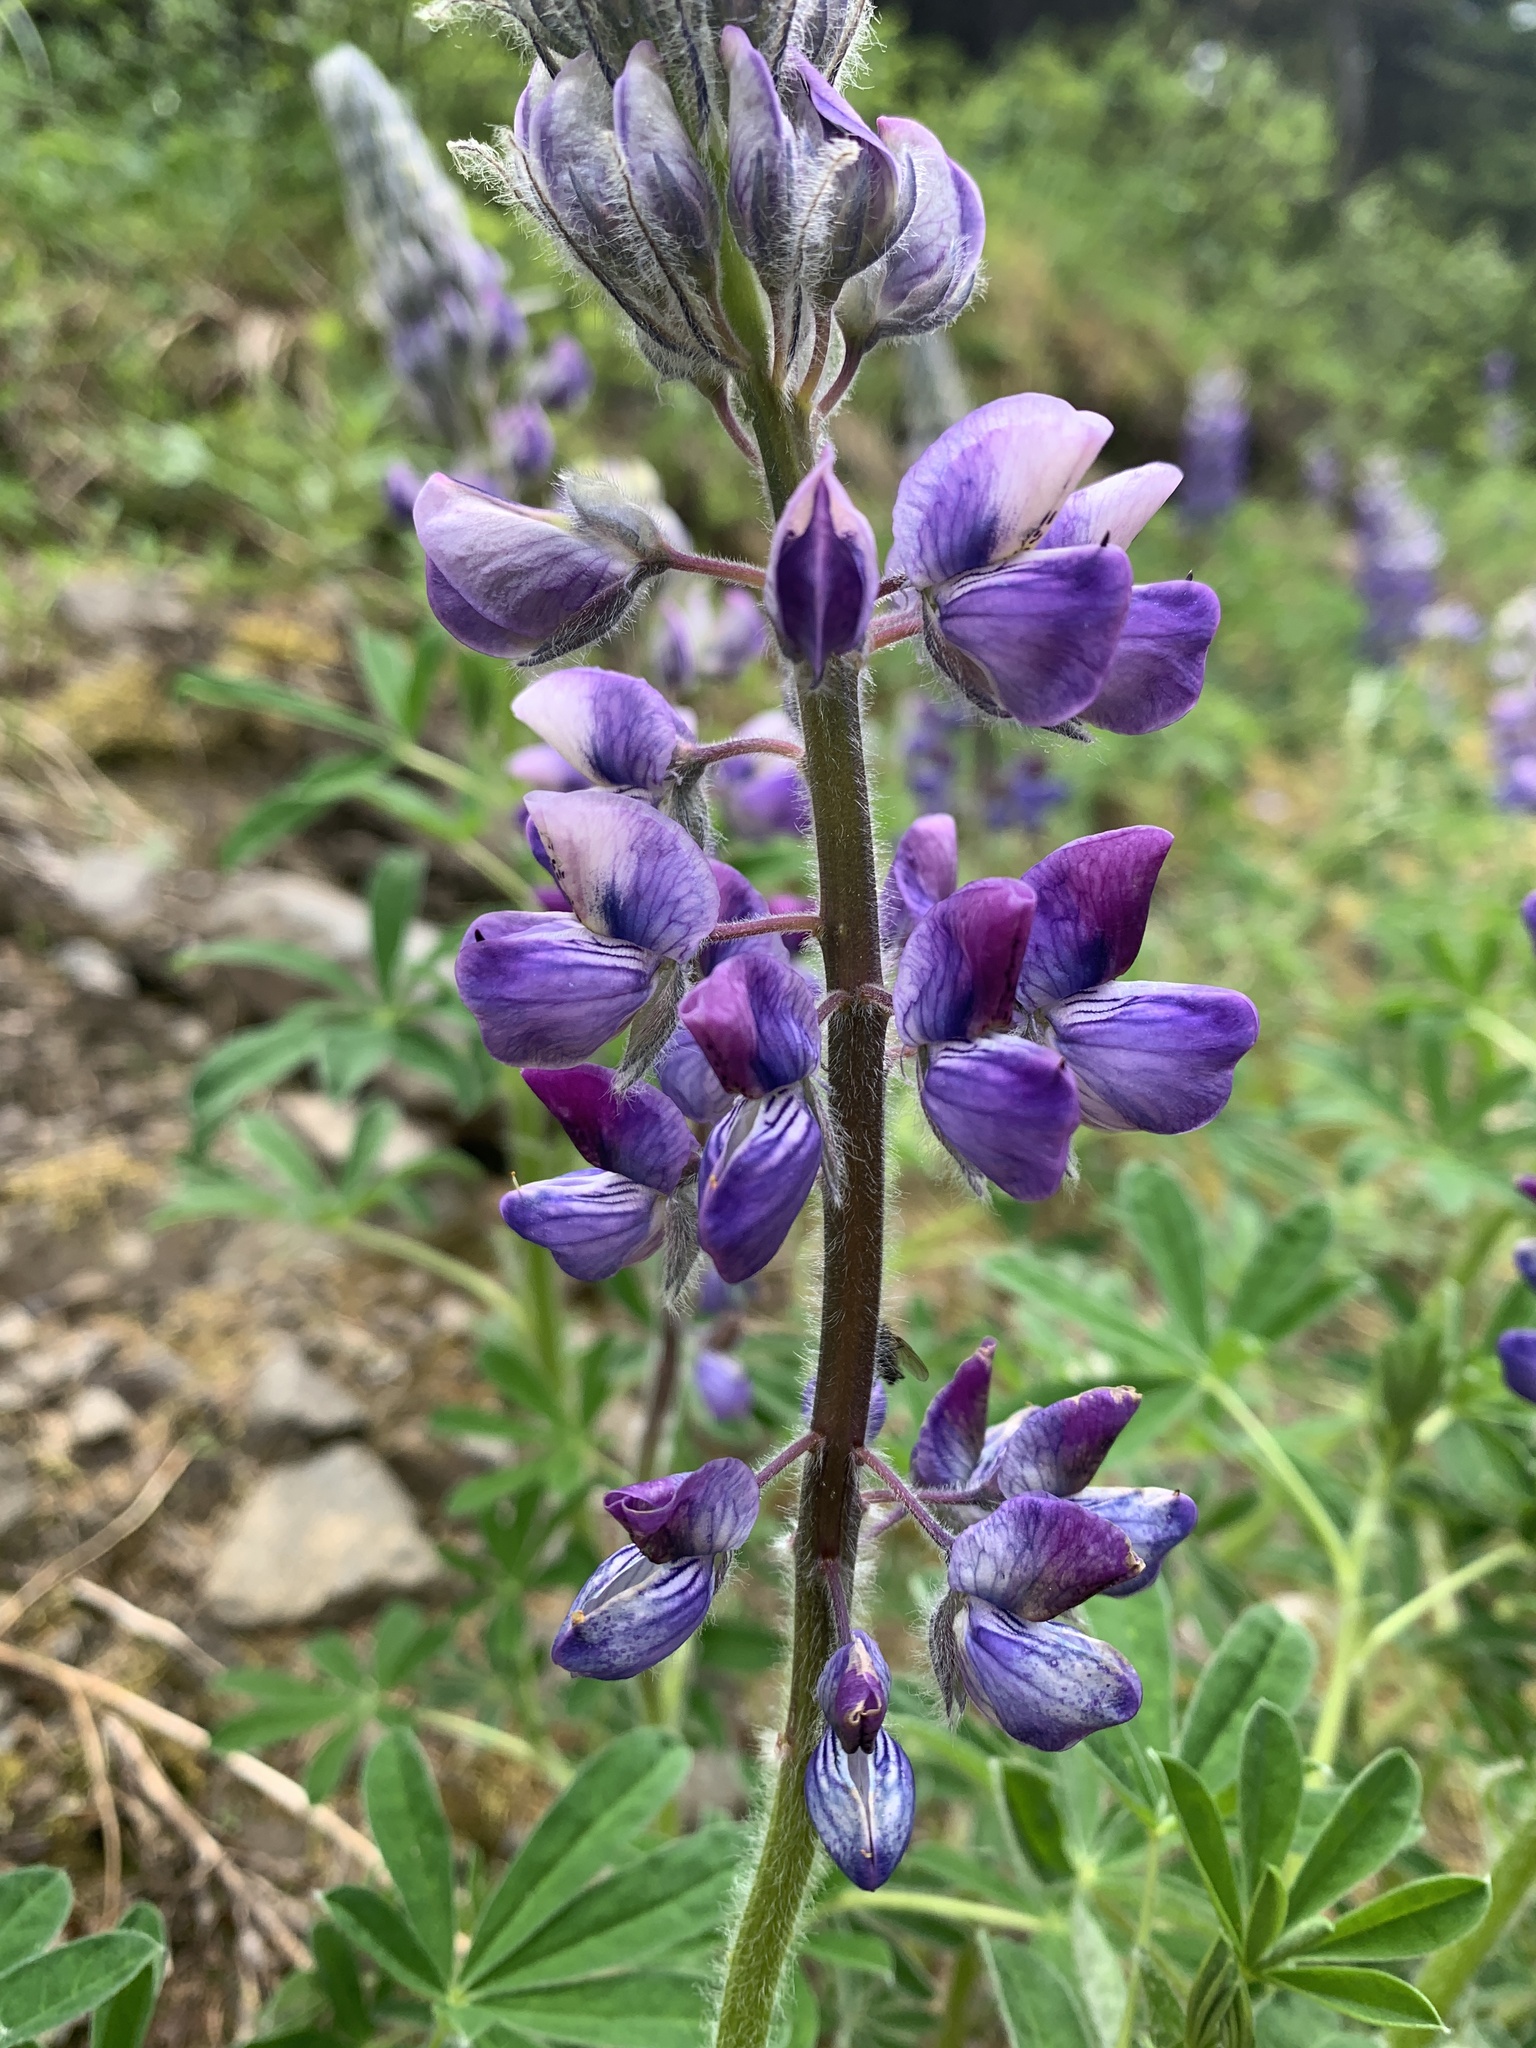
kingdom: Plantae
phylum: Tracheophyta
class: Magnoliopsida
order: Fabales
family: Fabaceae
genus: Lupinus
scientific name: Lupinus nootkatensis
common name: Nootka lupine
